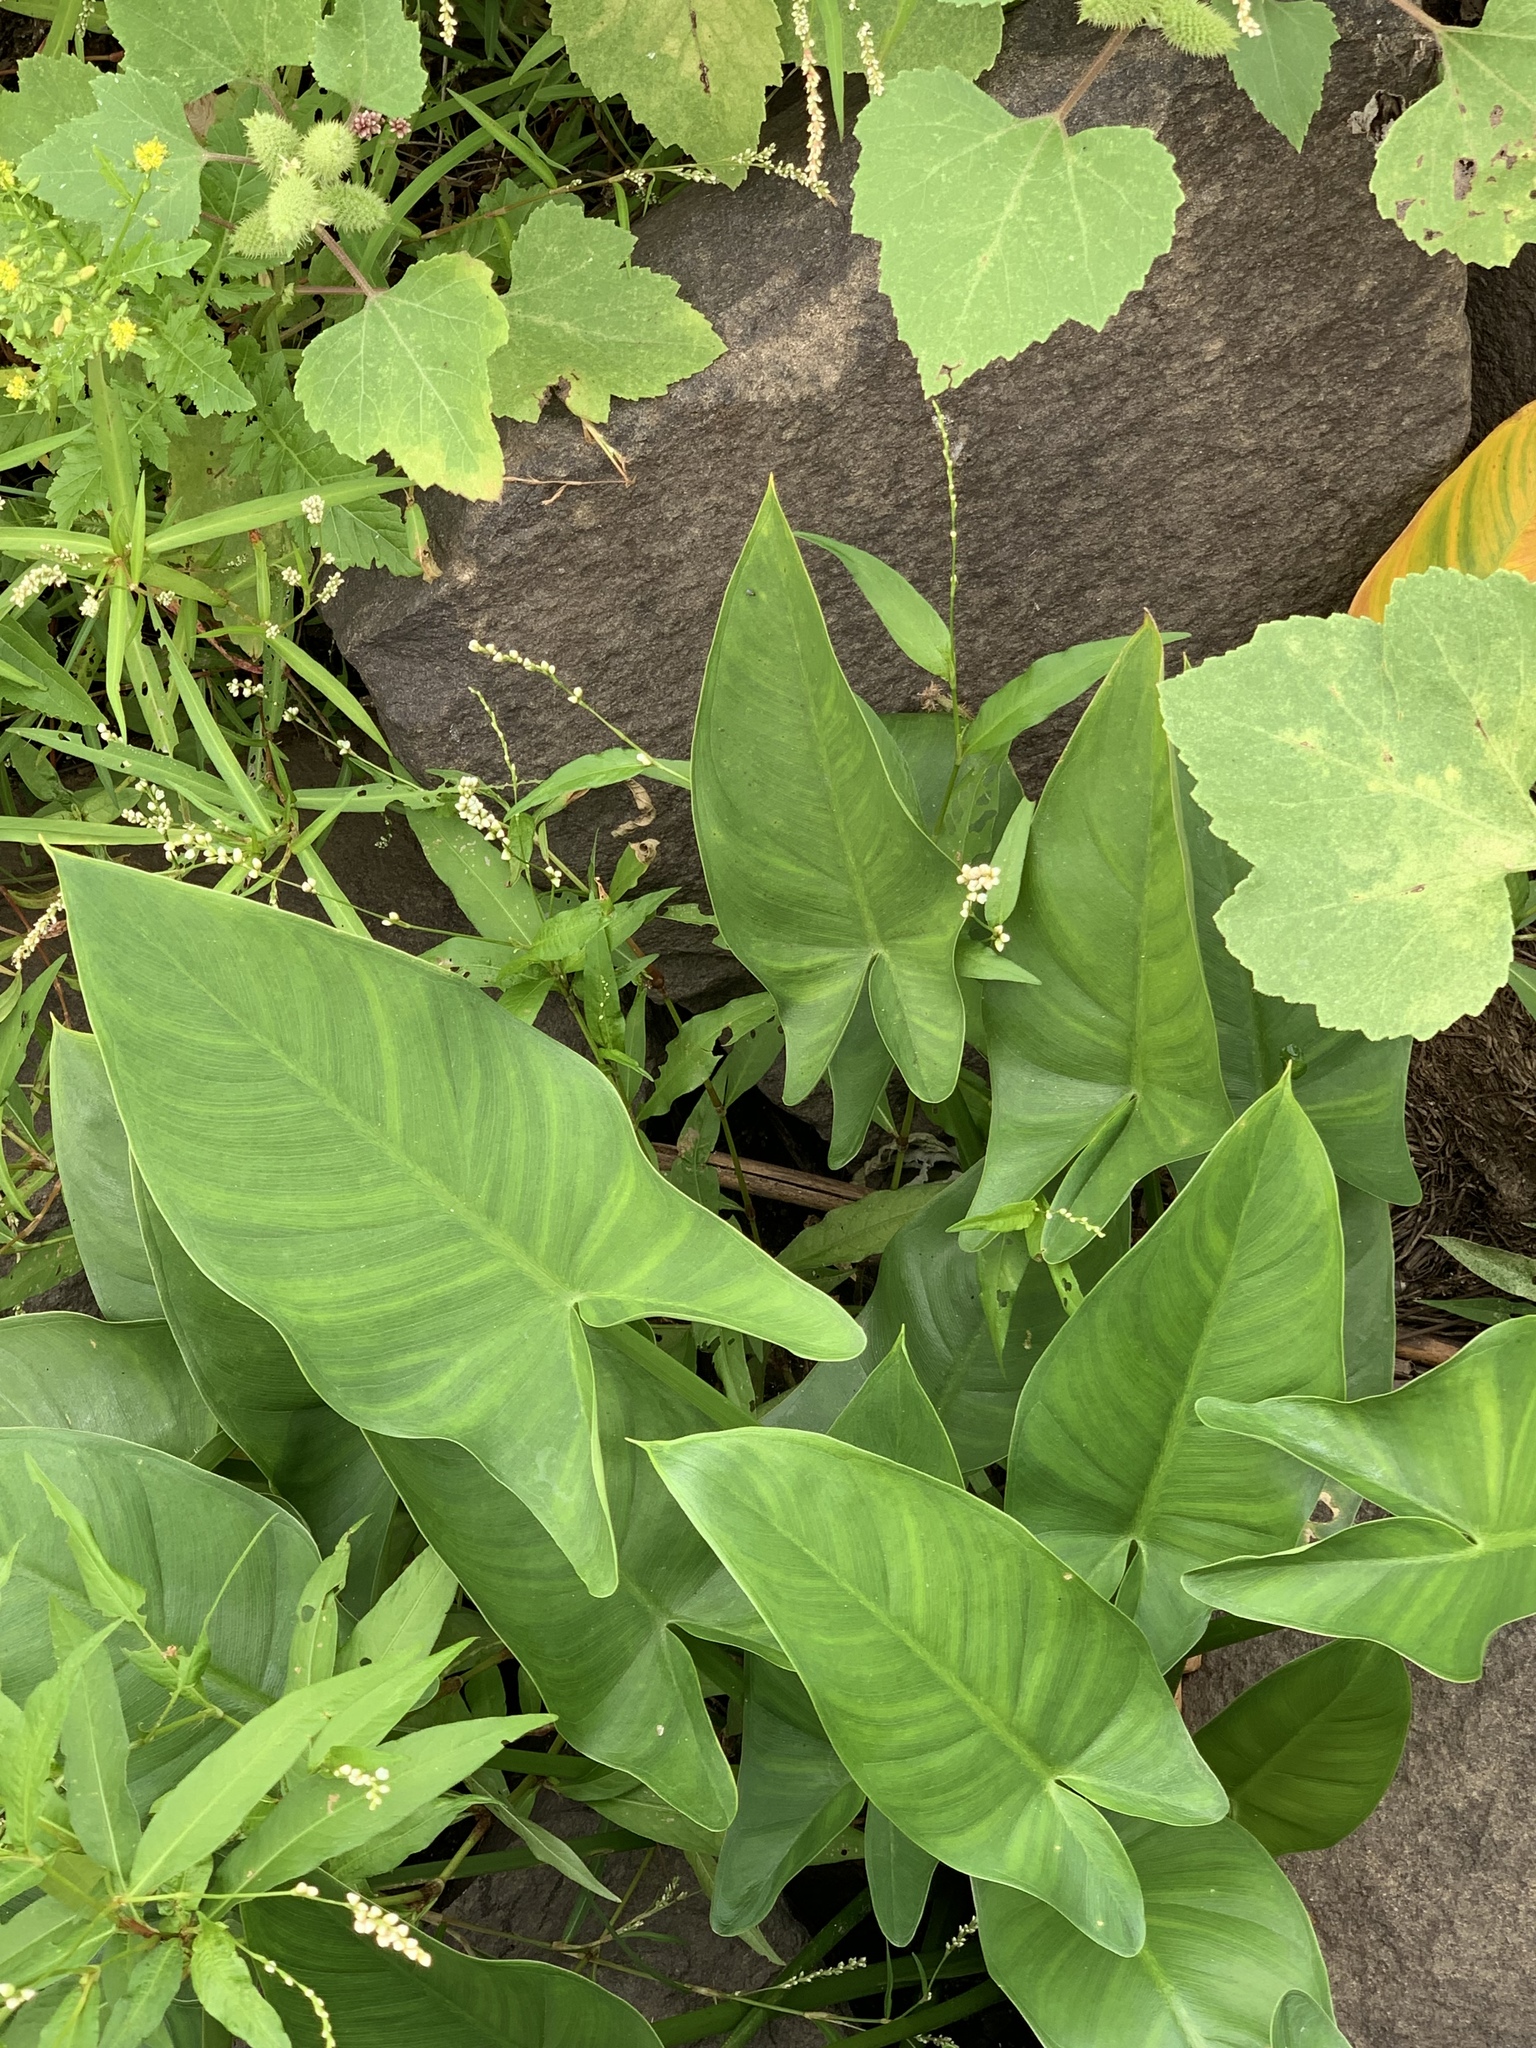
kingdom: Plantae
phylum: Tracheophyta
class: Liliopsida
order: Alismatales
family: Araceae
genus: Peltandra
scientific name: Peltandra virginica
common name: Arrow arum
